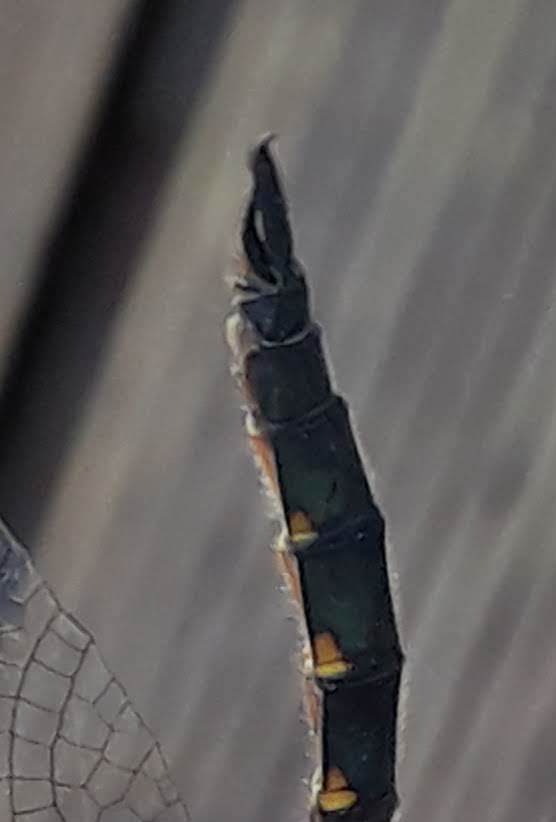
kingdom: Animalia
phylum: Arthropoda
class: Insecta
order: Odonata
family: Corduliidae
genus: Somatochlora
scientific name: Somatochlora flavomaculata
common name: Yellow-spotted emerald
